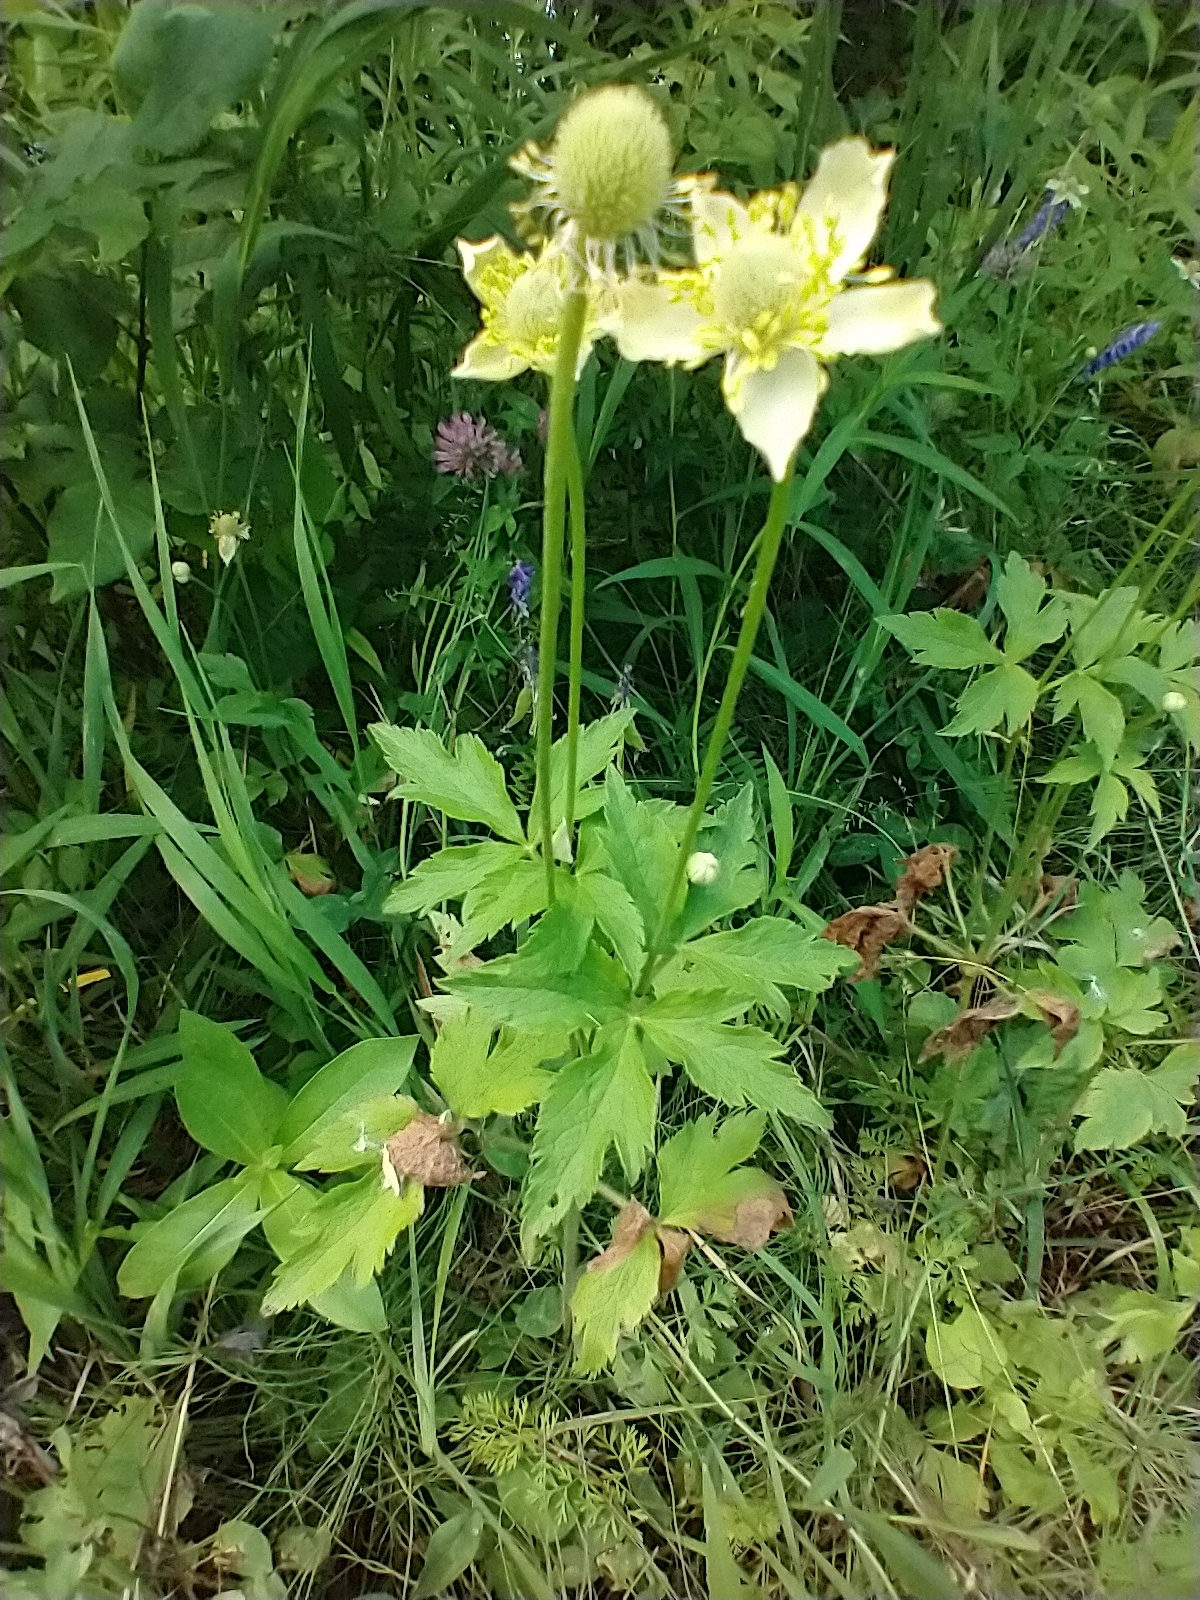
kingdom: Plantae
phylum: Tracheophyta
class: Magnoliopsida
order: Ranunculales
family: Ranunculaceae
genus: Anemone
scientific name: Anemone virginiana
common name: Tall anemone
